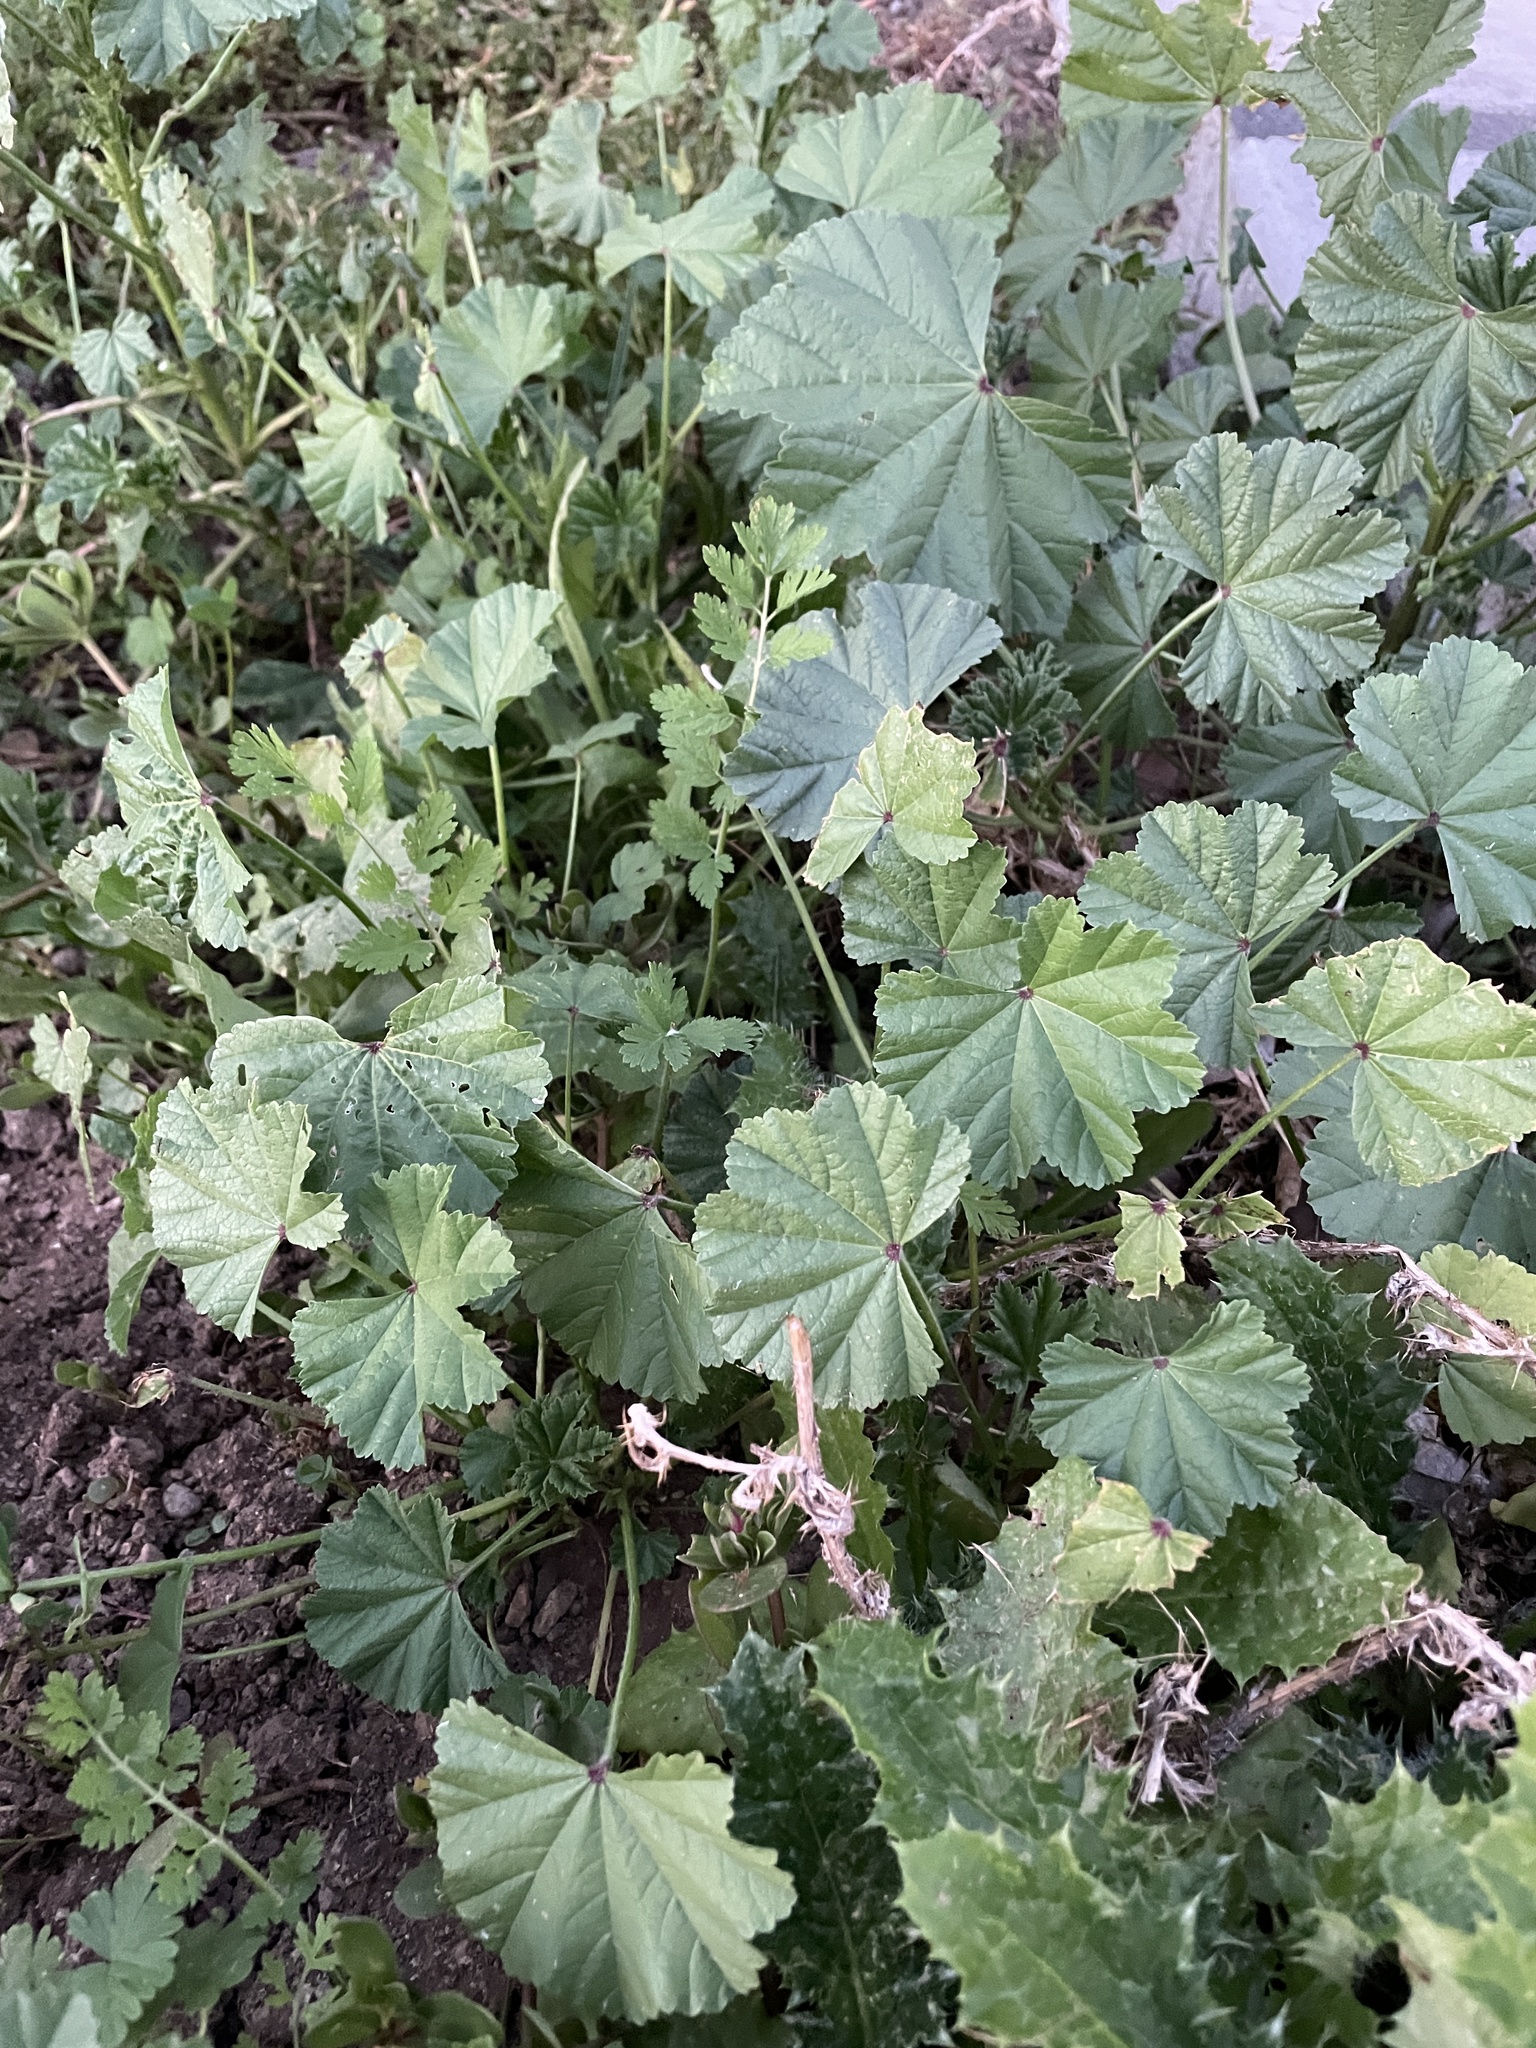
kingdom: Plantae
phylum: Tracheophyta
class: Magnoliopsida
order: Malvales
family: Malvaceae
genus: Malva
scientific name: Malva
